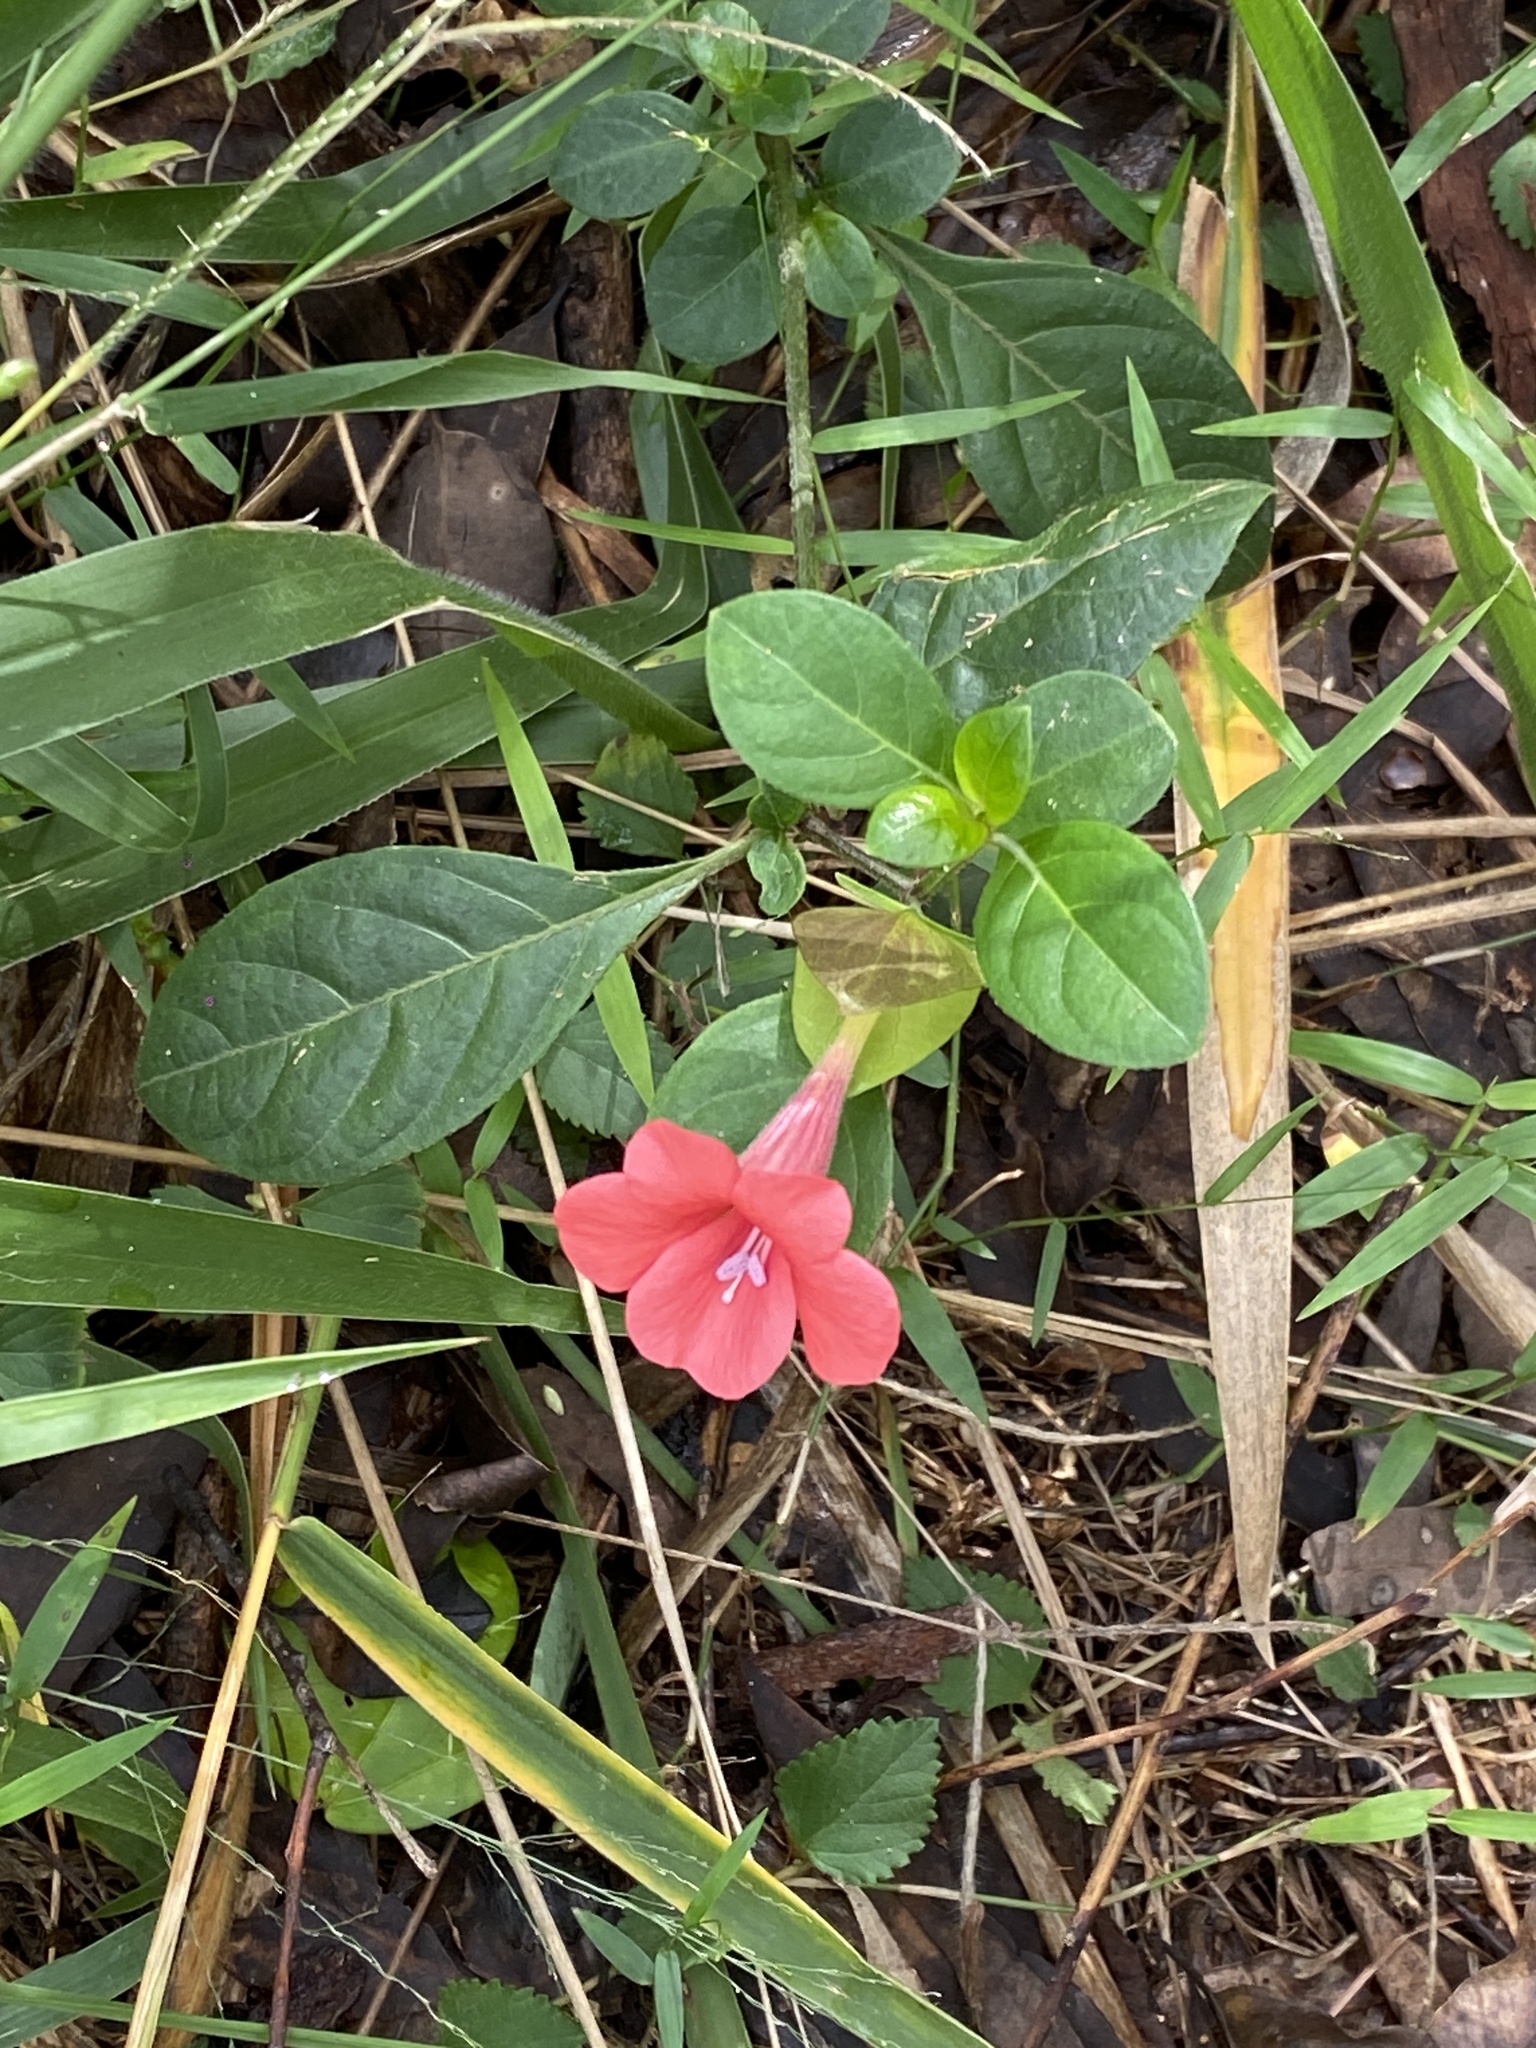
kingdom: Plantae
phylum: Tracheophyta
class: Magnoliopsida
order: Lamiales
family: Acanthaceae
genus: Barleria
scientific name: Barleria repens
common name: Pink-ruellia
